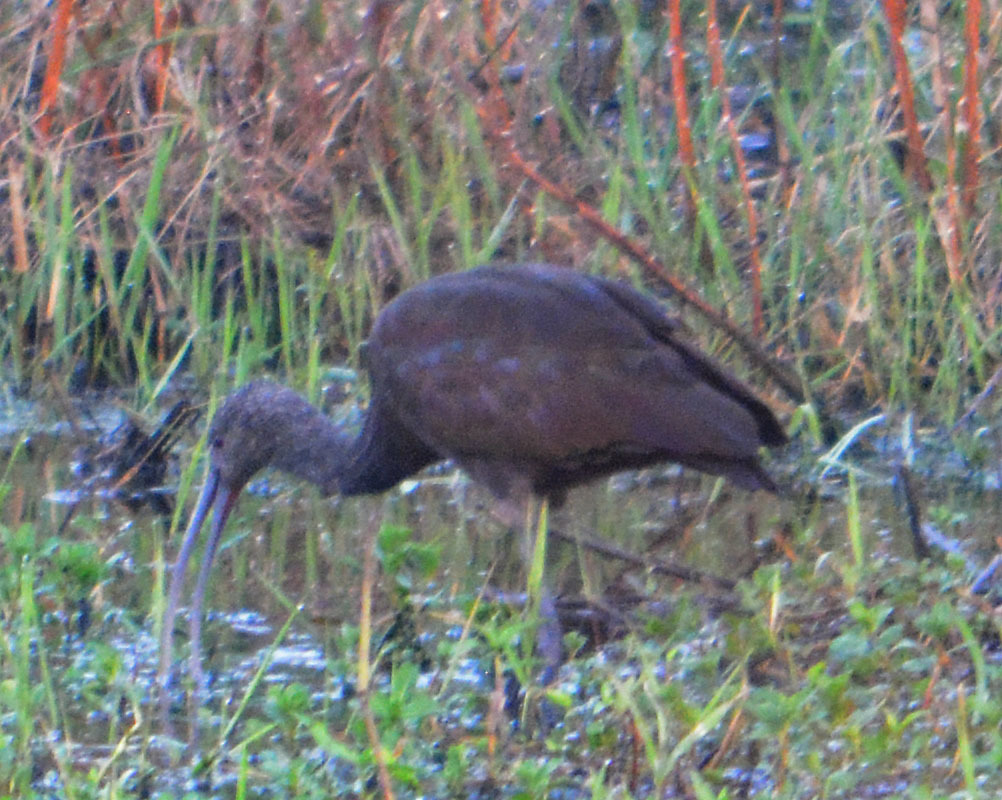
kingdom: Animalia
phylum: Chordata
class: Aves
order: Pelecaniformes
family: Threskiornithidae
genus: Plegadis
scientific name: Plegadis chihi
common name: White-faced ibis
